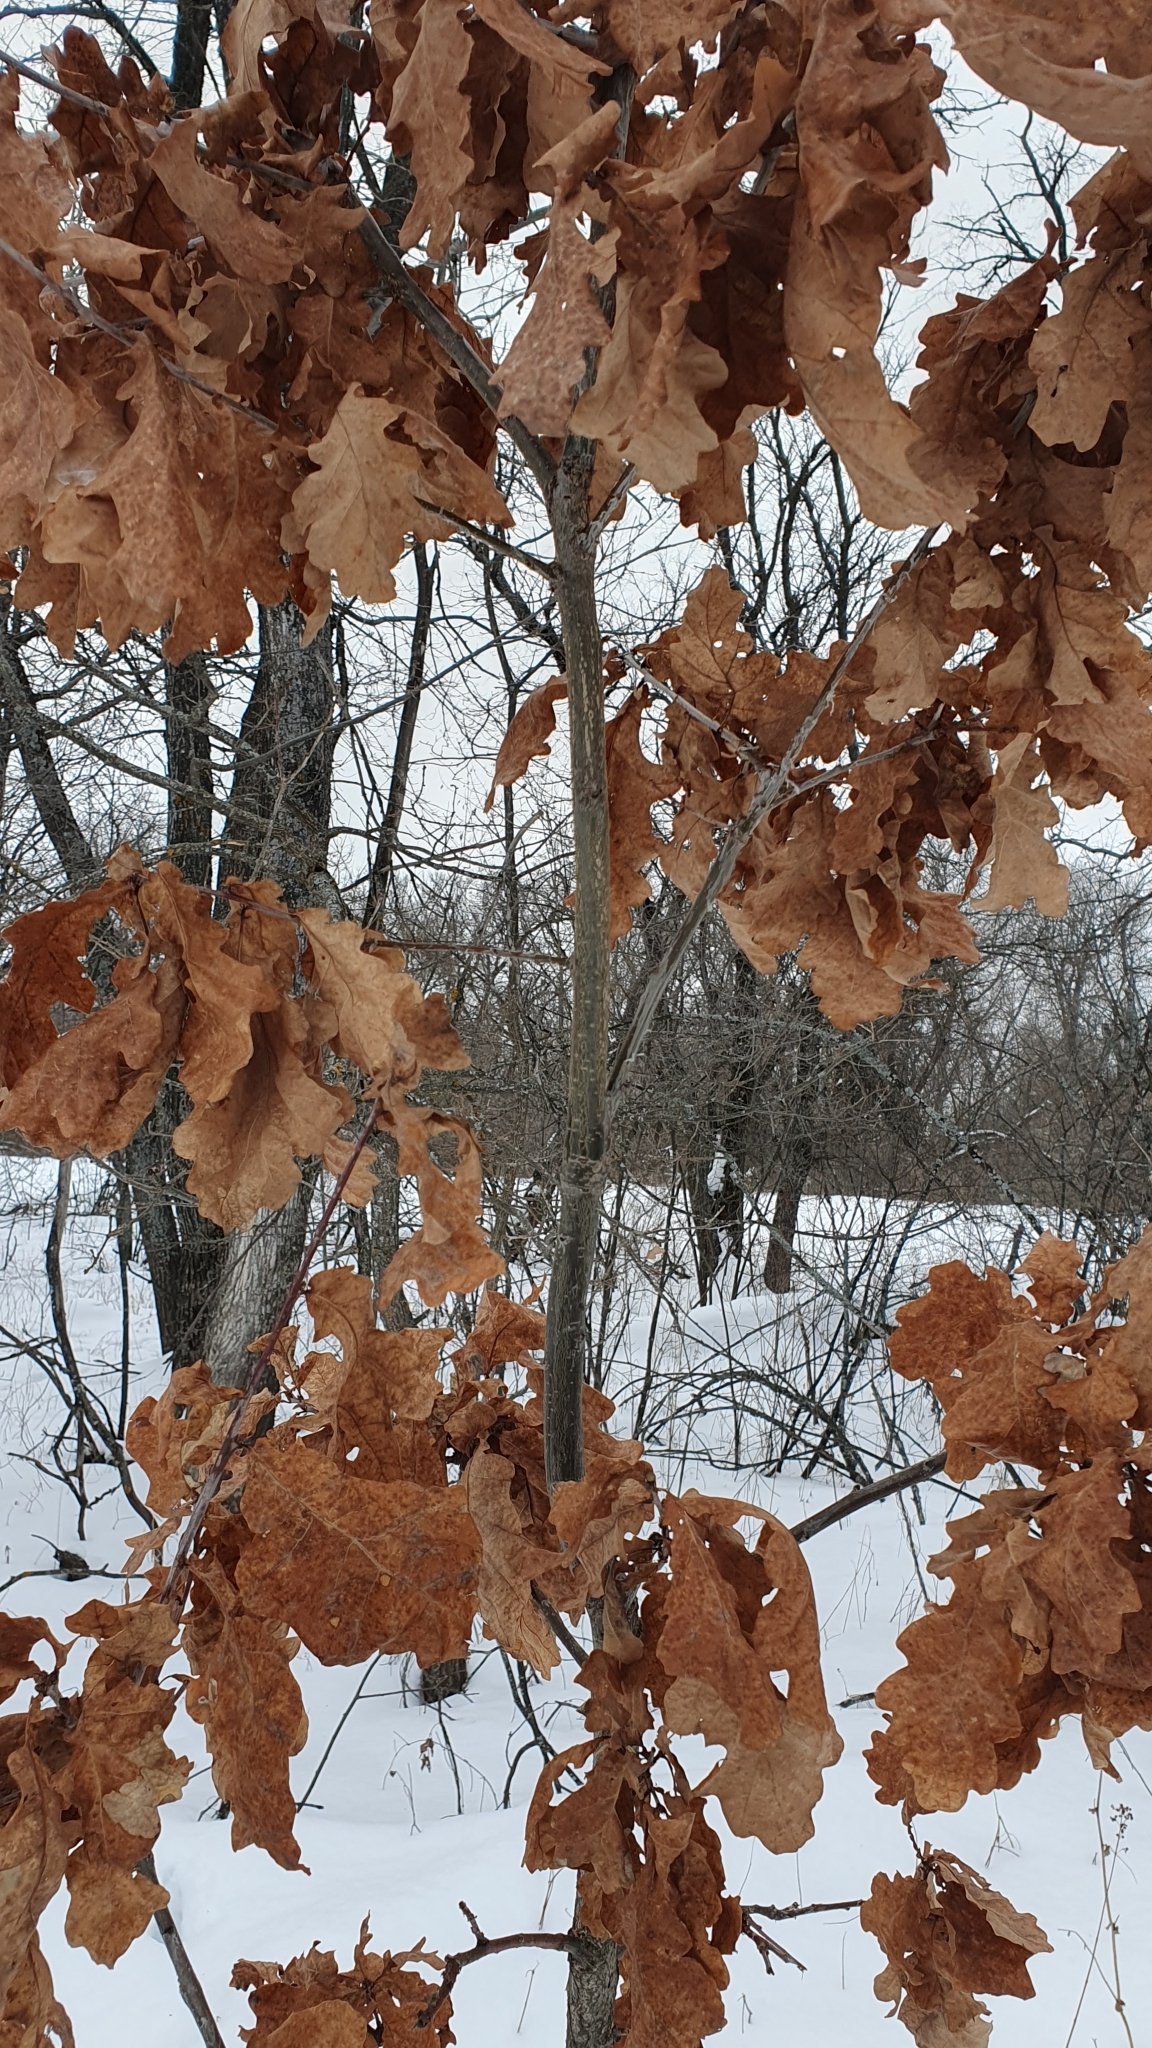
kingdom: Plantae
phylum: Tracheophyta
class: Magnoliopsida
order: Fagales
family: Fagaceae
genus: Quercus
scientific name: Quercus robur
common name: Pedunculate oak
